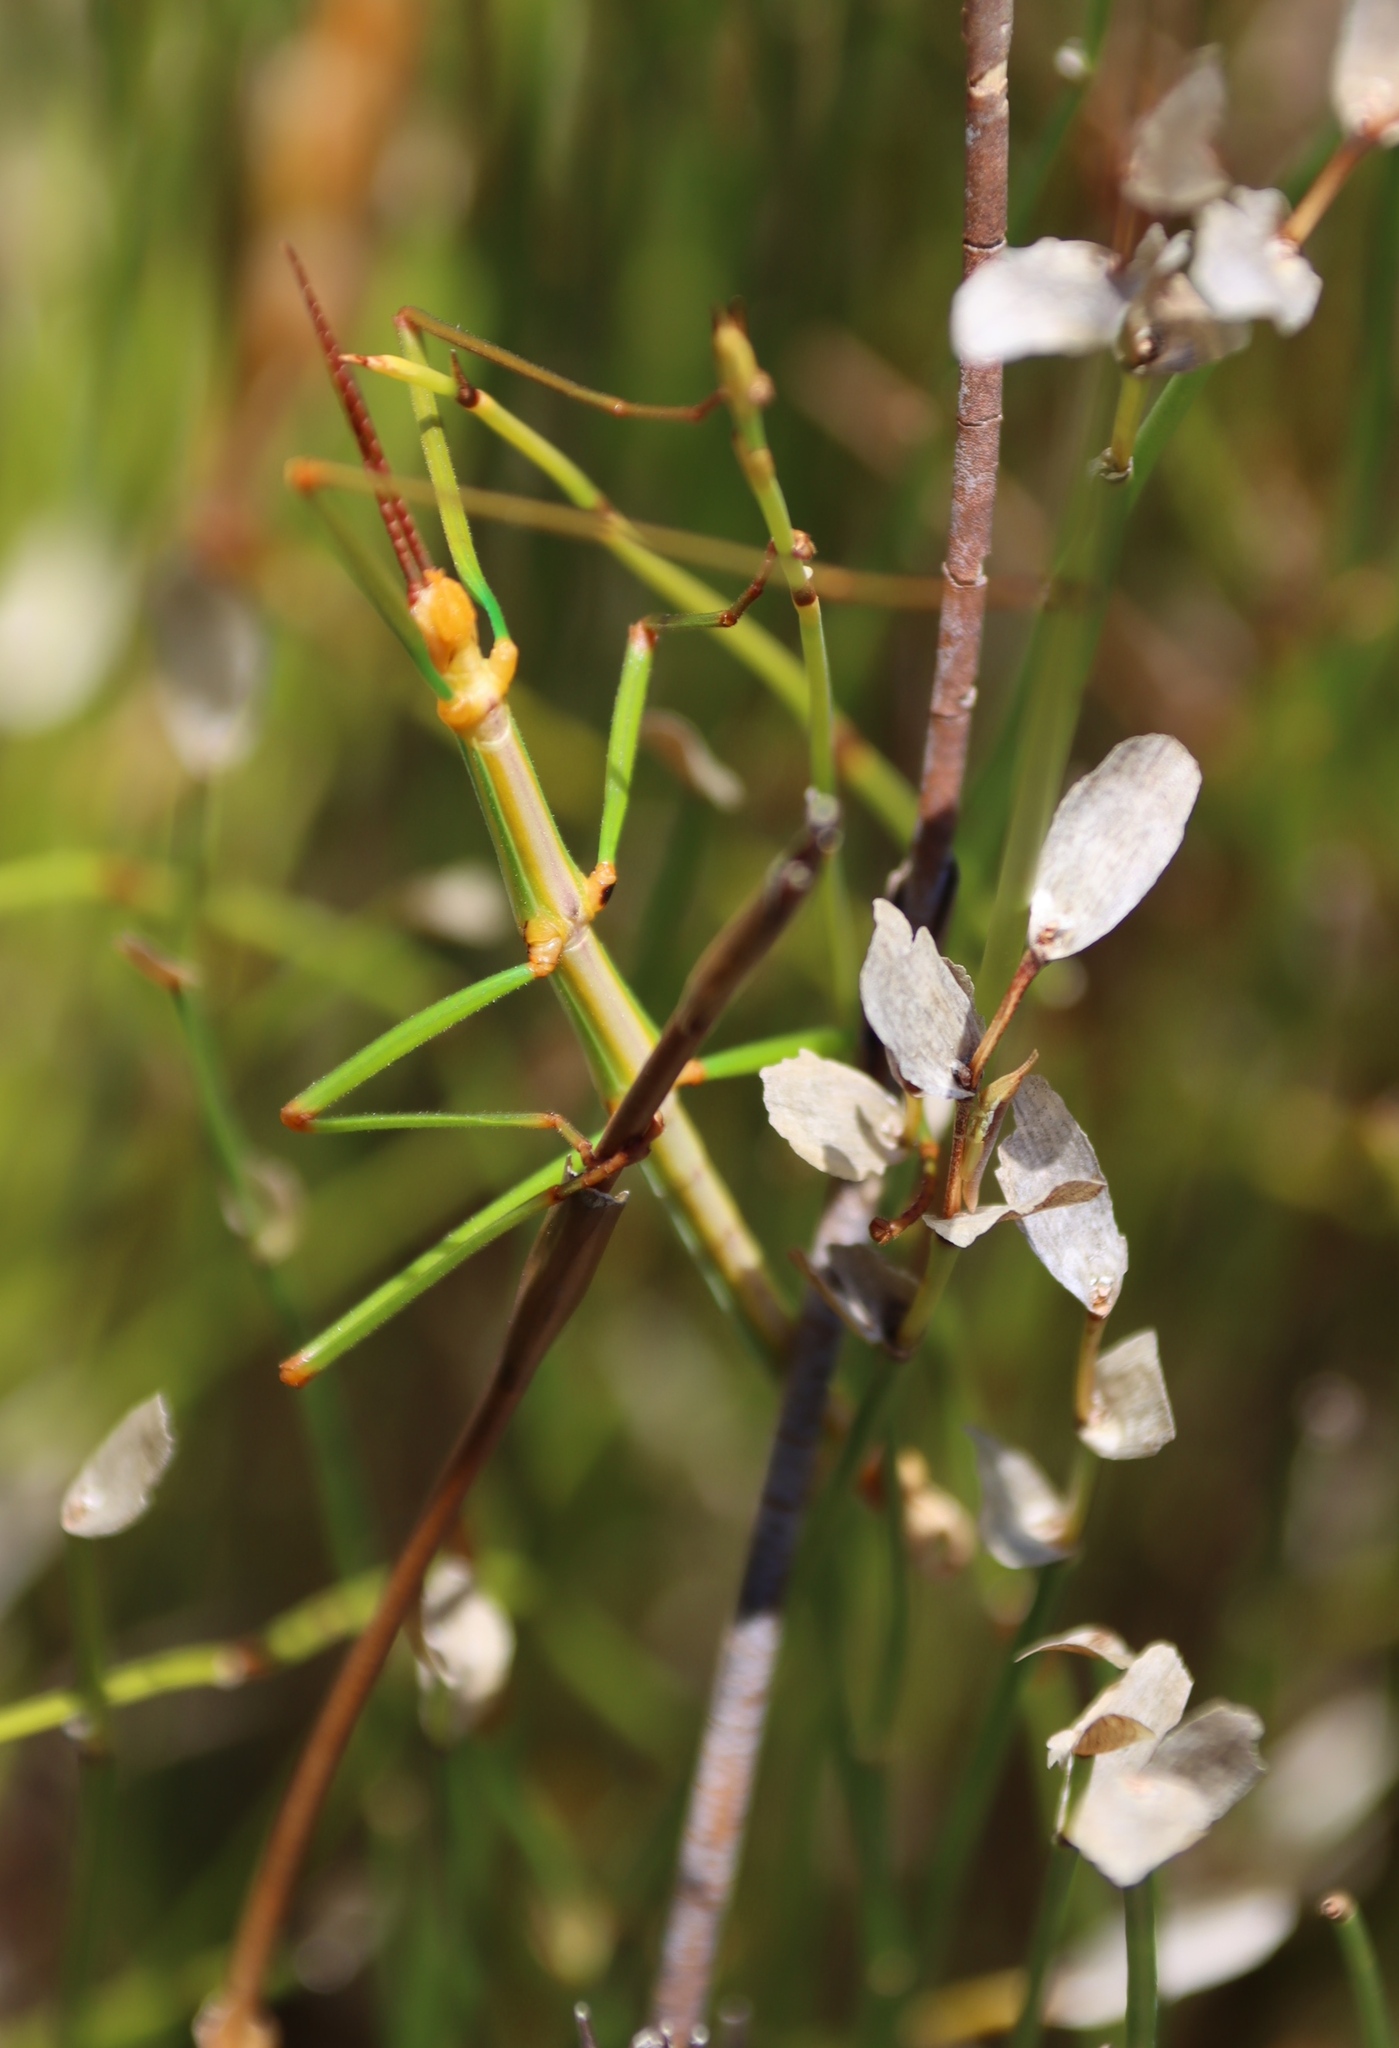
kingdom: Animalia
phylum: Arthropoda
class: Insecta
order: Phasmida
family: Bacillidae
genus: Macynia
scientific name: Macynia labiata
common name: Thunberg's stick insect
